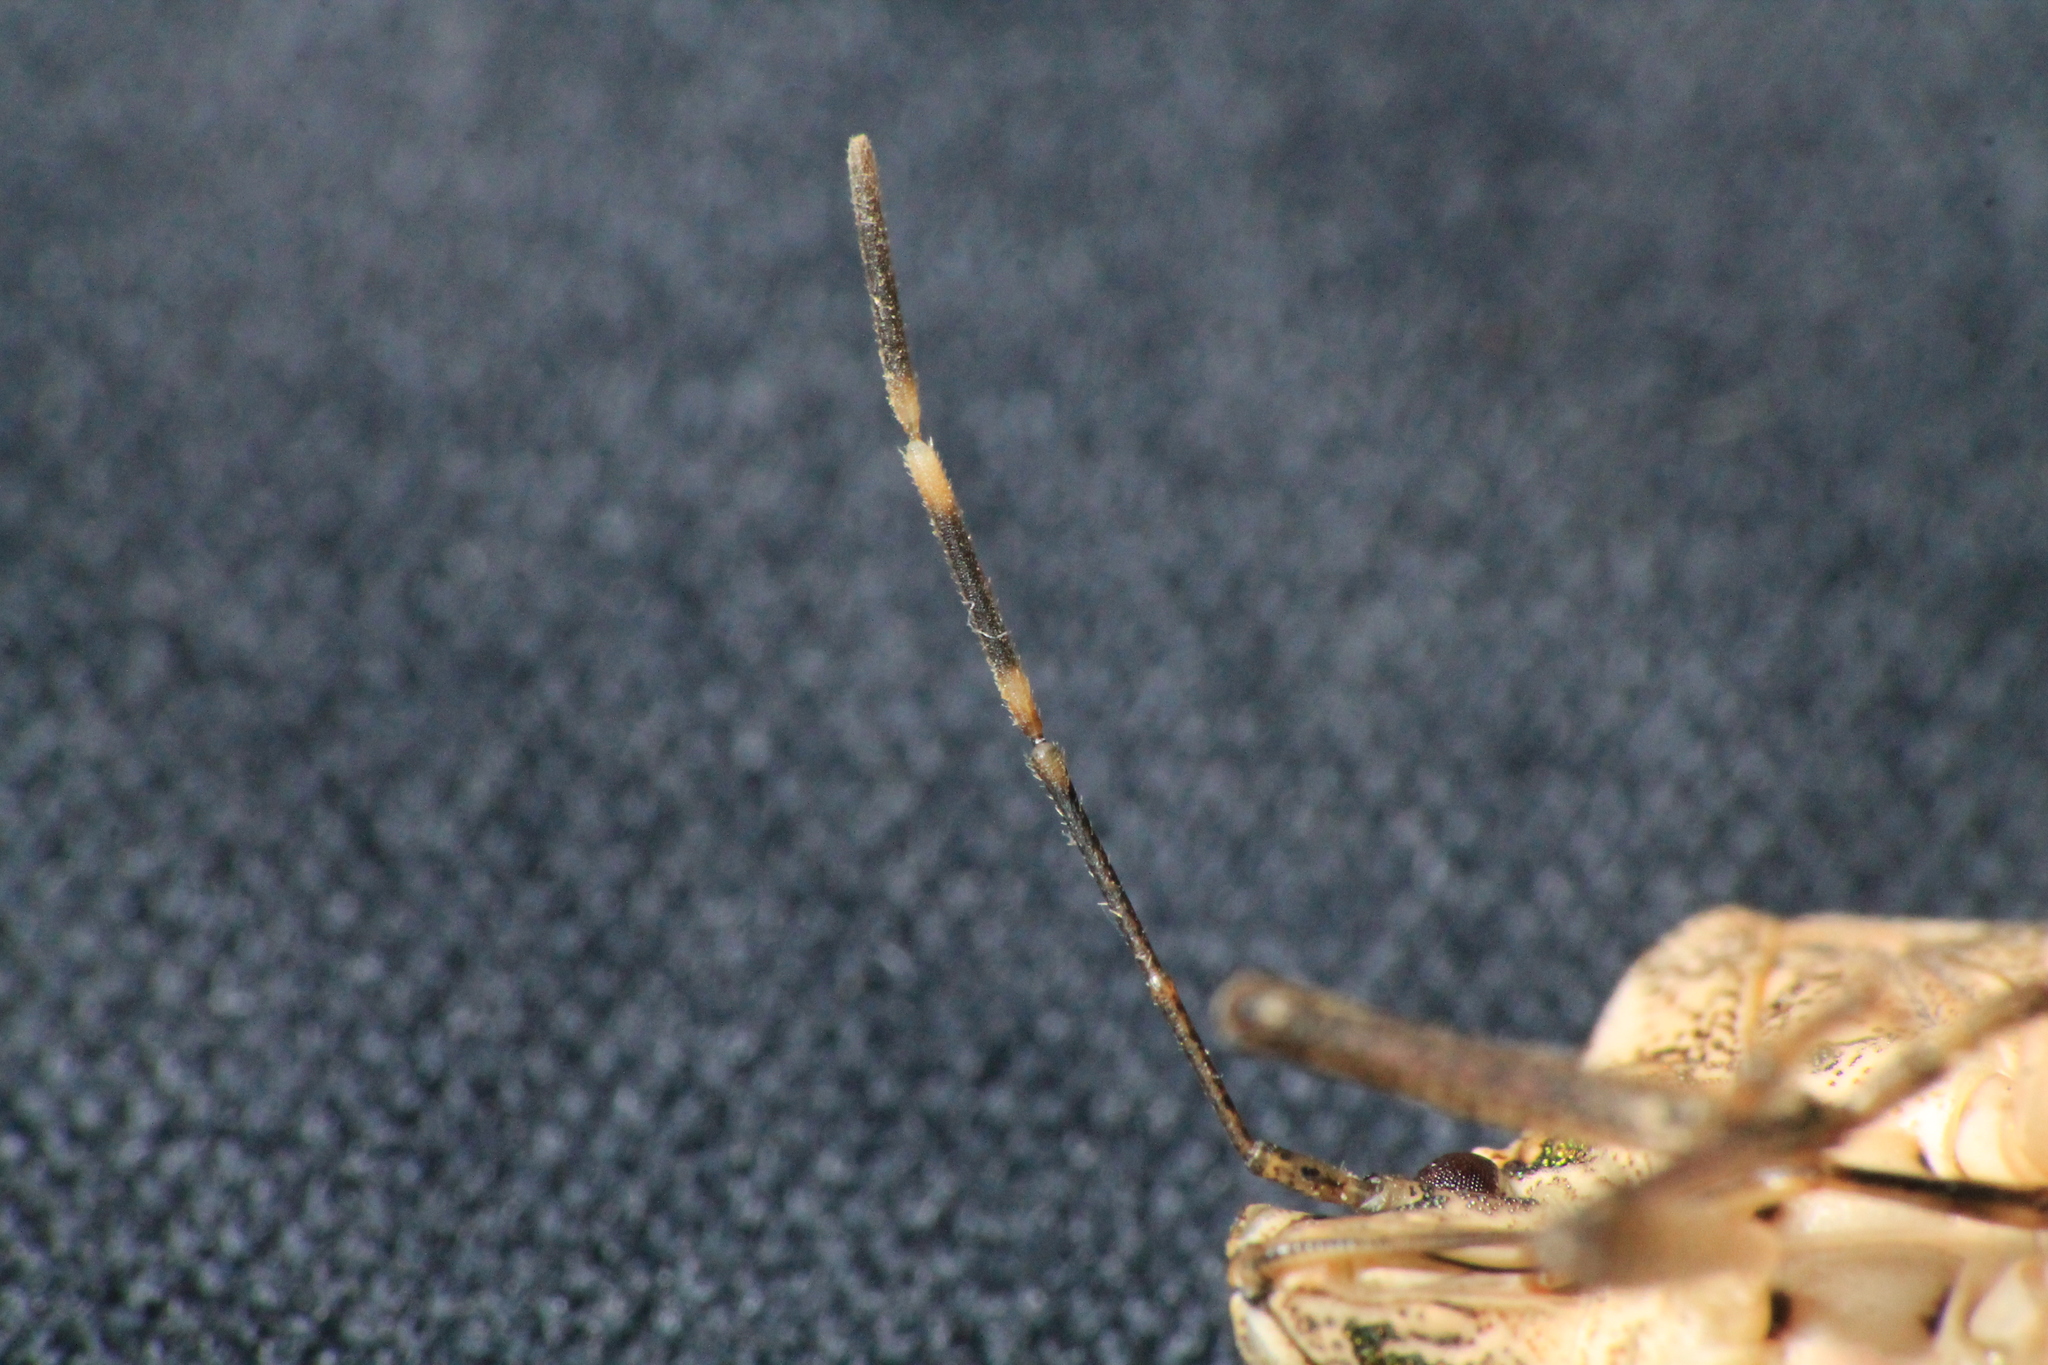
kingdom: Animalia
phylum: Arthropoda
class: Insecta
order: Hemiptera
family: Pentatomidae
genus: Halyomorpha
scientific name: Halyomorpha halys
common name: Brown marmorated stink bug
